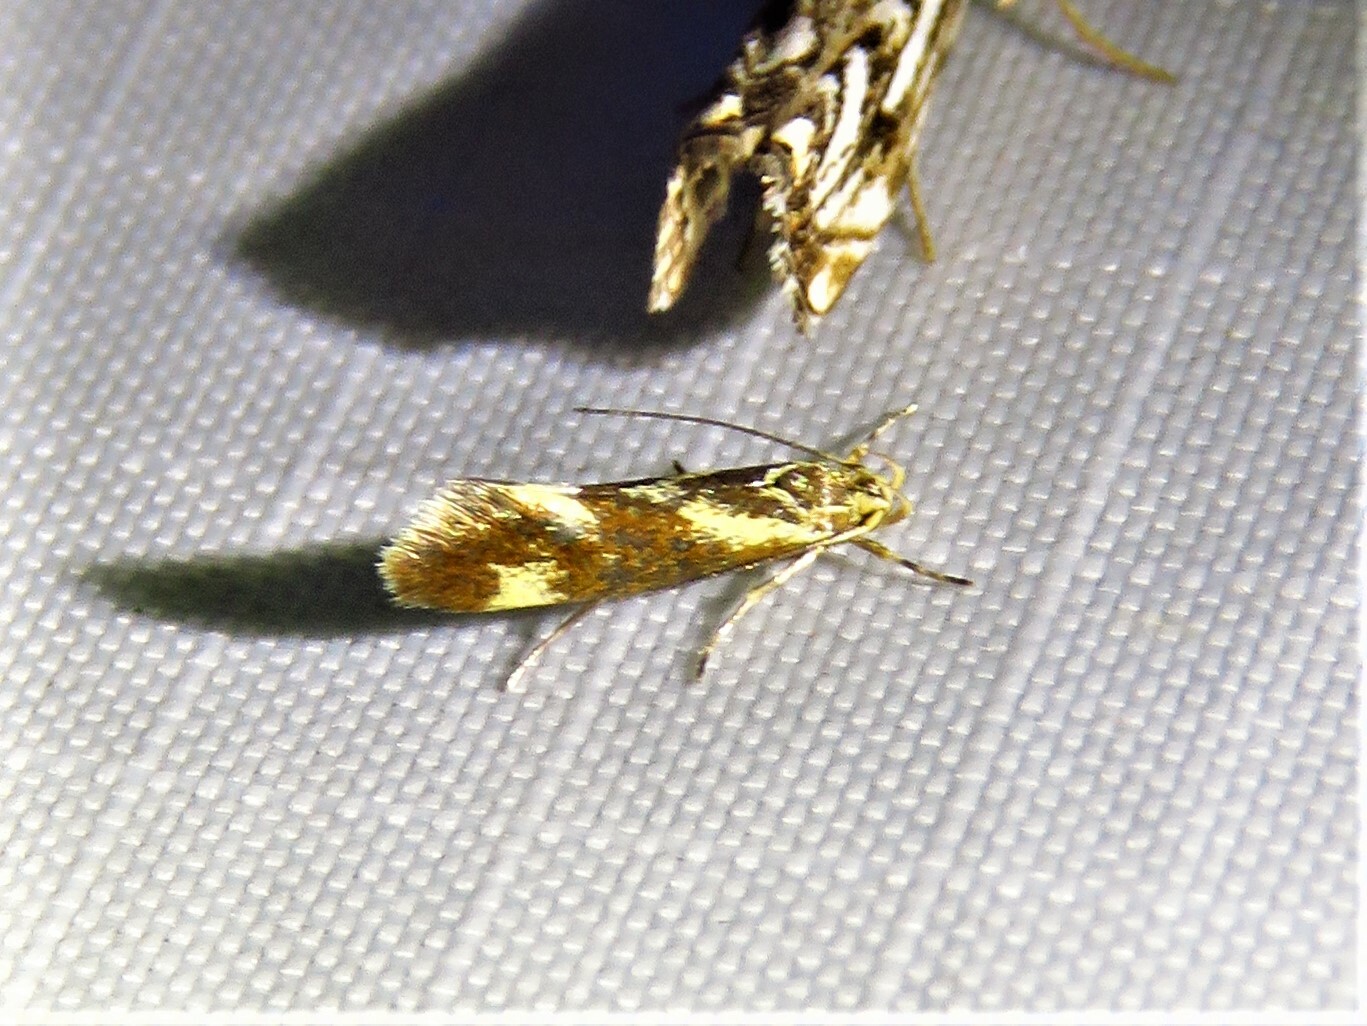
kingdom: Animalia
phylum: Arthropoda
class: Insecta
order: Lepidoptera
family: Oecophoridae
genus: Borkhausenia
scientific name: Borkhausenia cinnamomea
